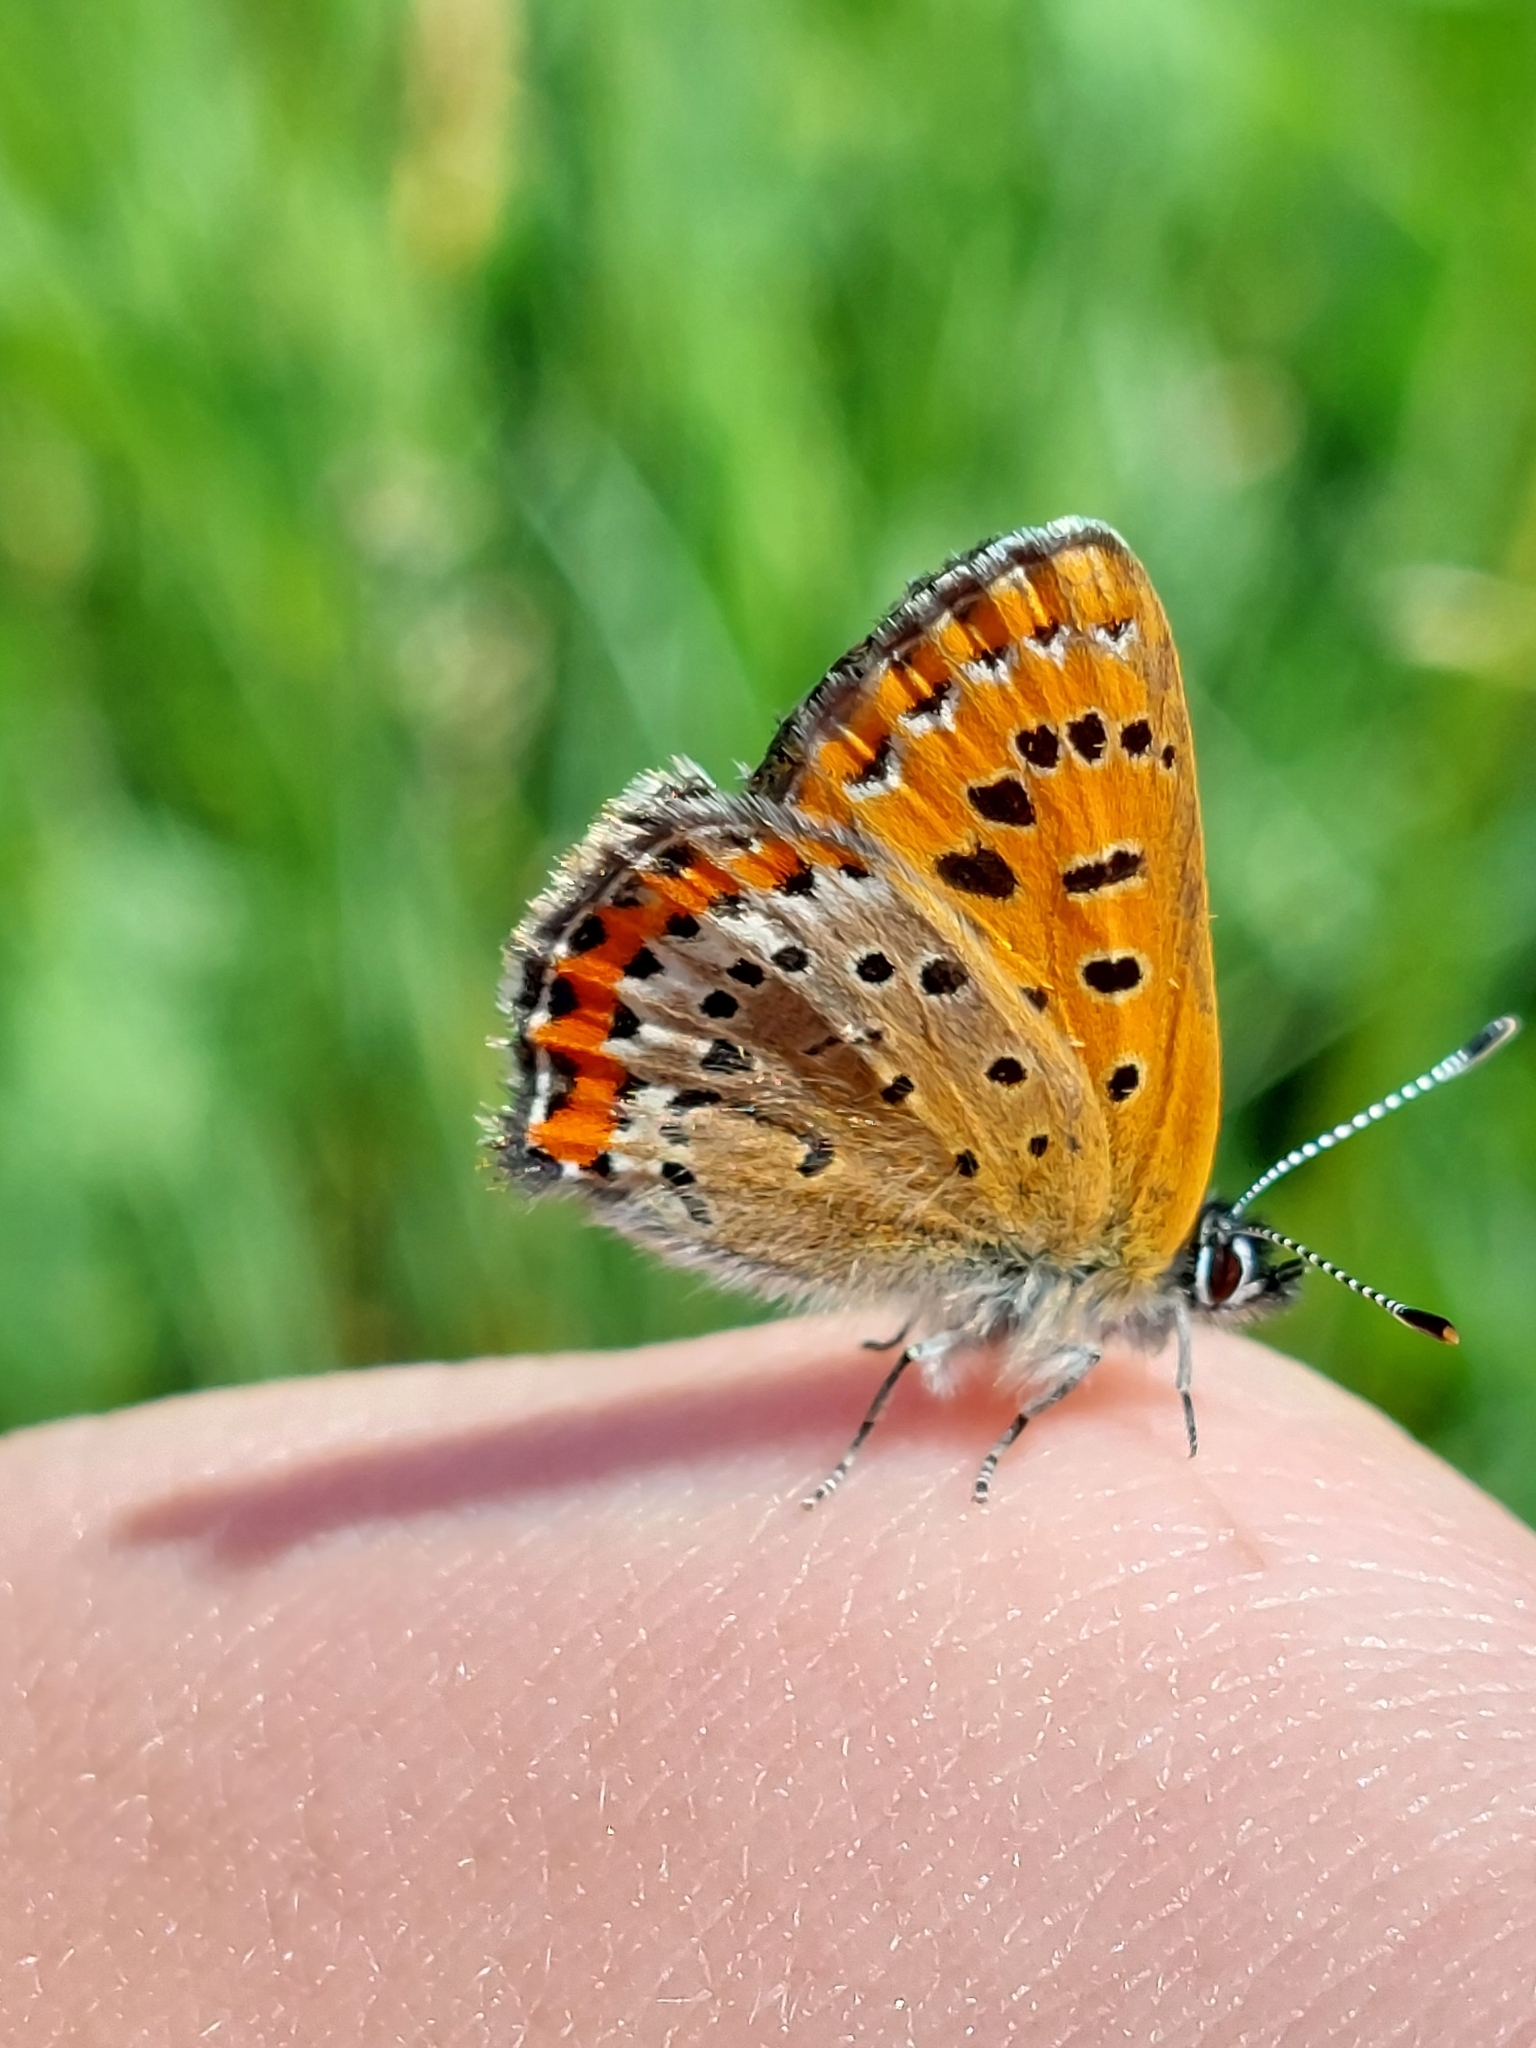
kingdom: Animalia
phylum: Arthropoda
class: Insecta
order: Lepidoptera
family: Lycaenidae
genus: Helleia
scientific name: Helleia helle
